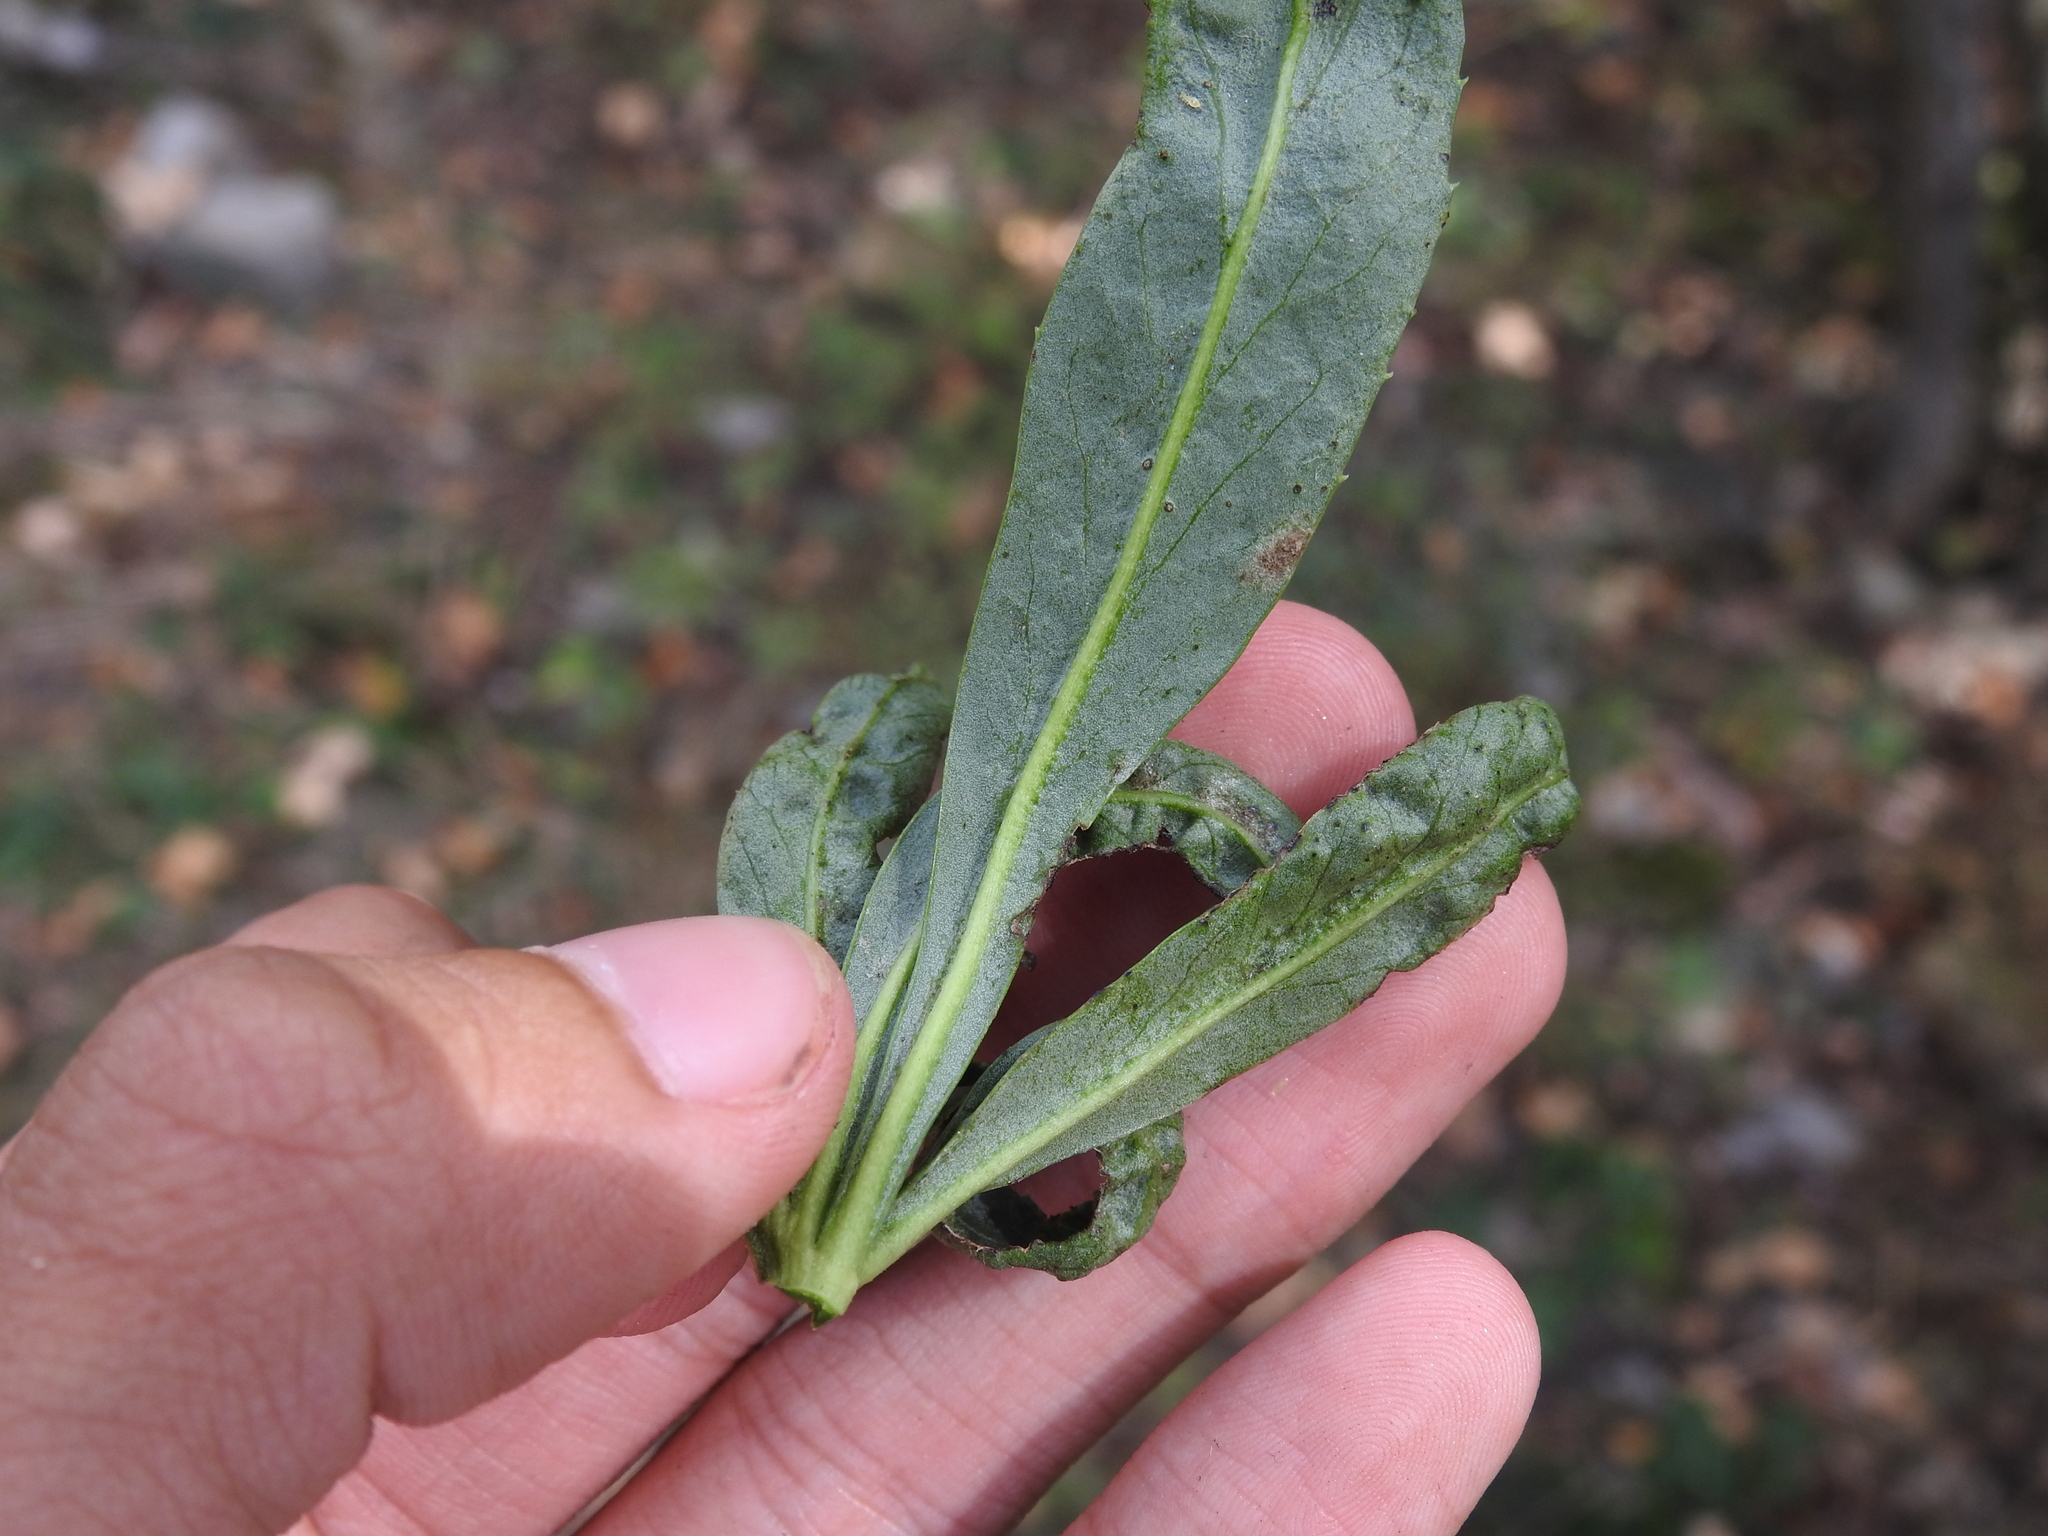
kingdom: Plantae
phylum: Tracheophyta
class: Magnoliopsida
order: Ranunculales
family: Ranunculaceae
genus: Helleborus
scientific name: Helleborus foetidus
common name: Stinking hellebore
